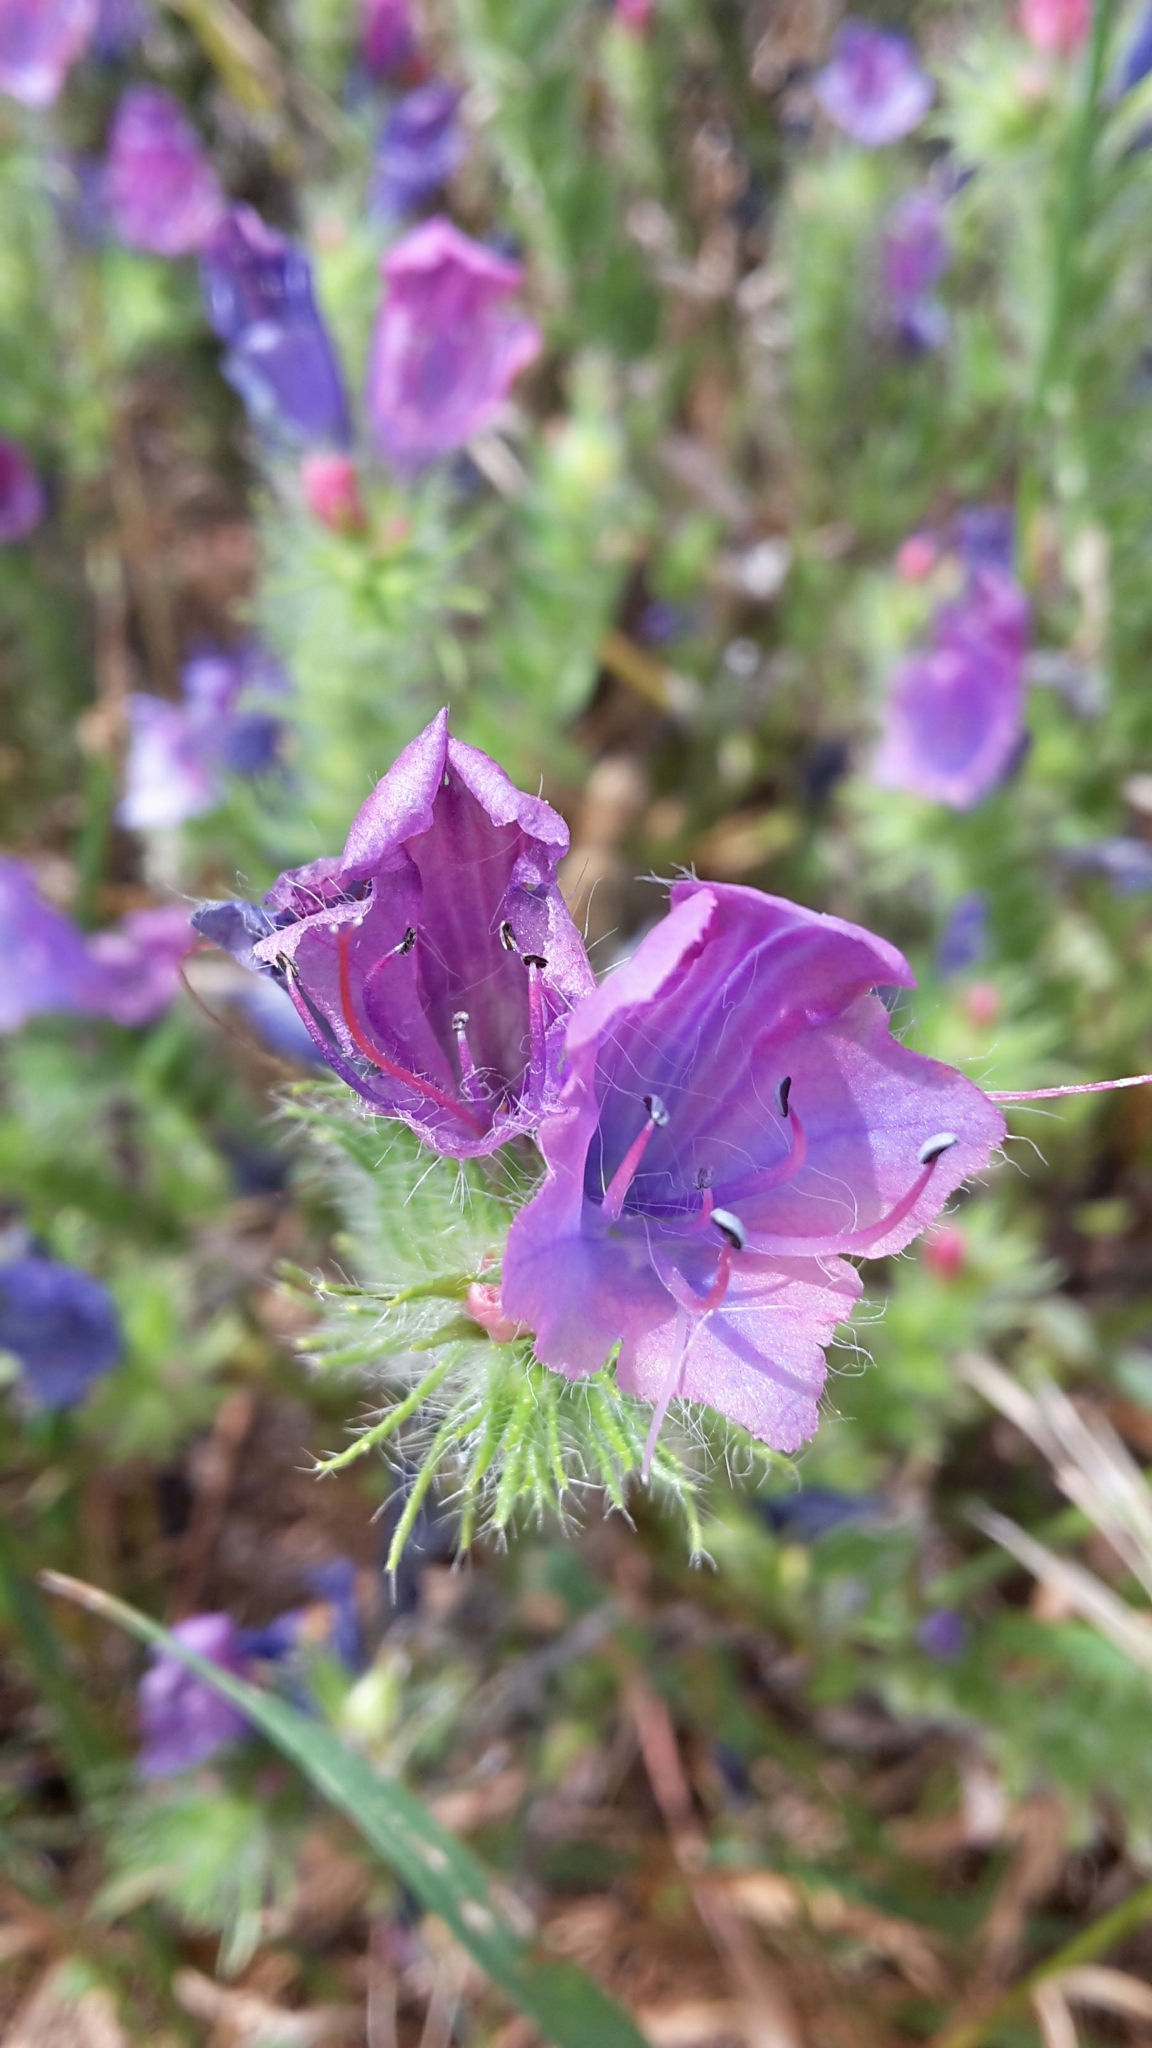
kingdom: Plantae
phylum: Tracheophyta
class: Magnoliopsida
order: Boraginales
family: Boraginaceae
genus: Echium
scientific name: Echium vulgare
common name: Common viper's bugloss
